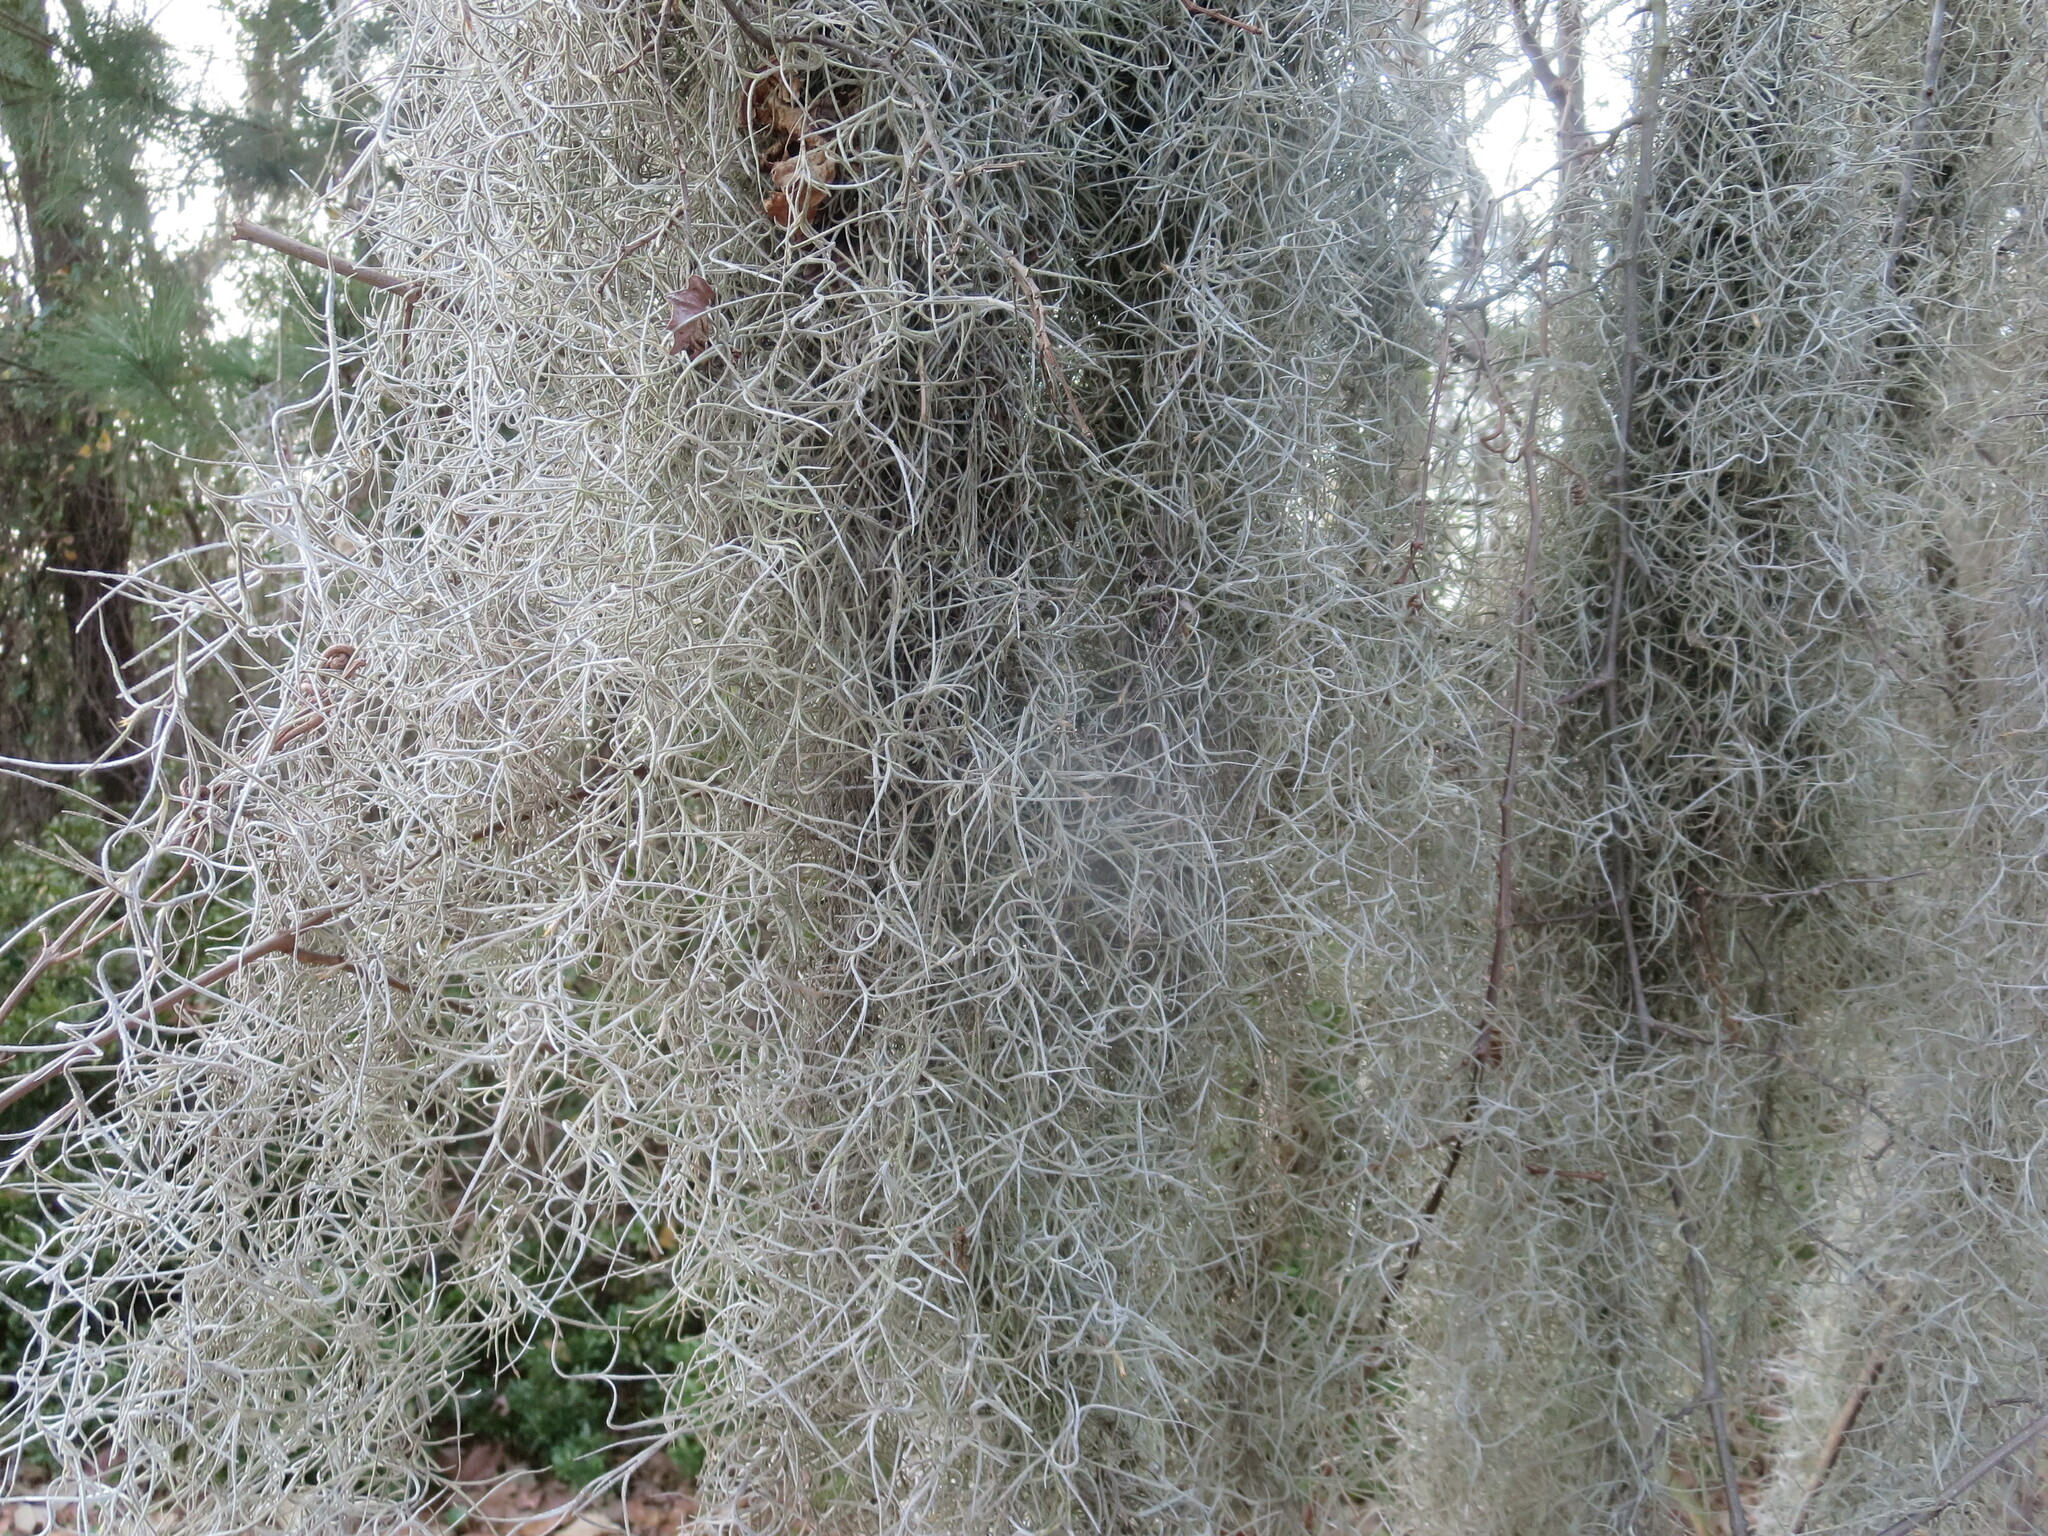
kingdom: Plantae
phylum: Tracheophyta
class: Liliopsida
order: Poales
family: Bromeliaceae
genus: Tillandsia
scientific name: Tillandsia usneoides
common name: Spanish moss
